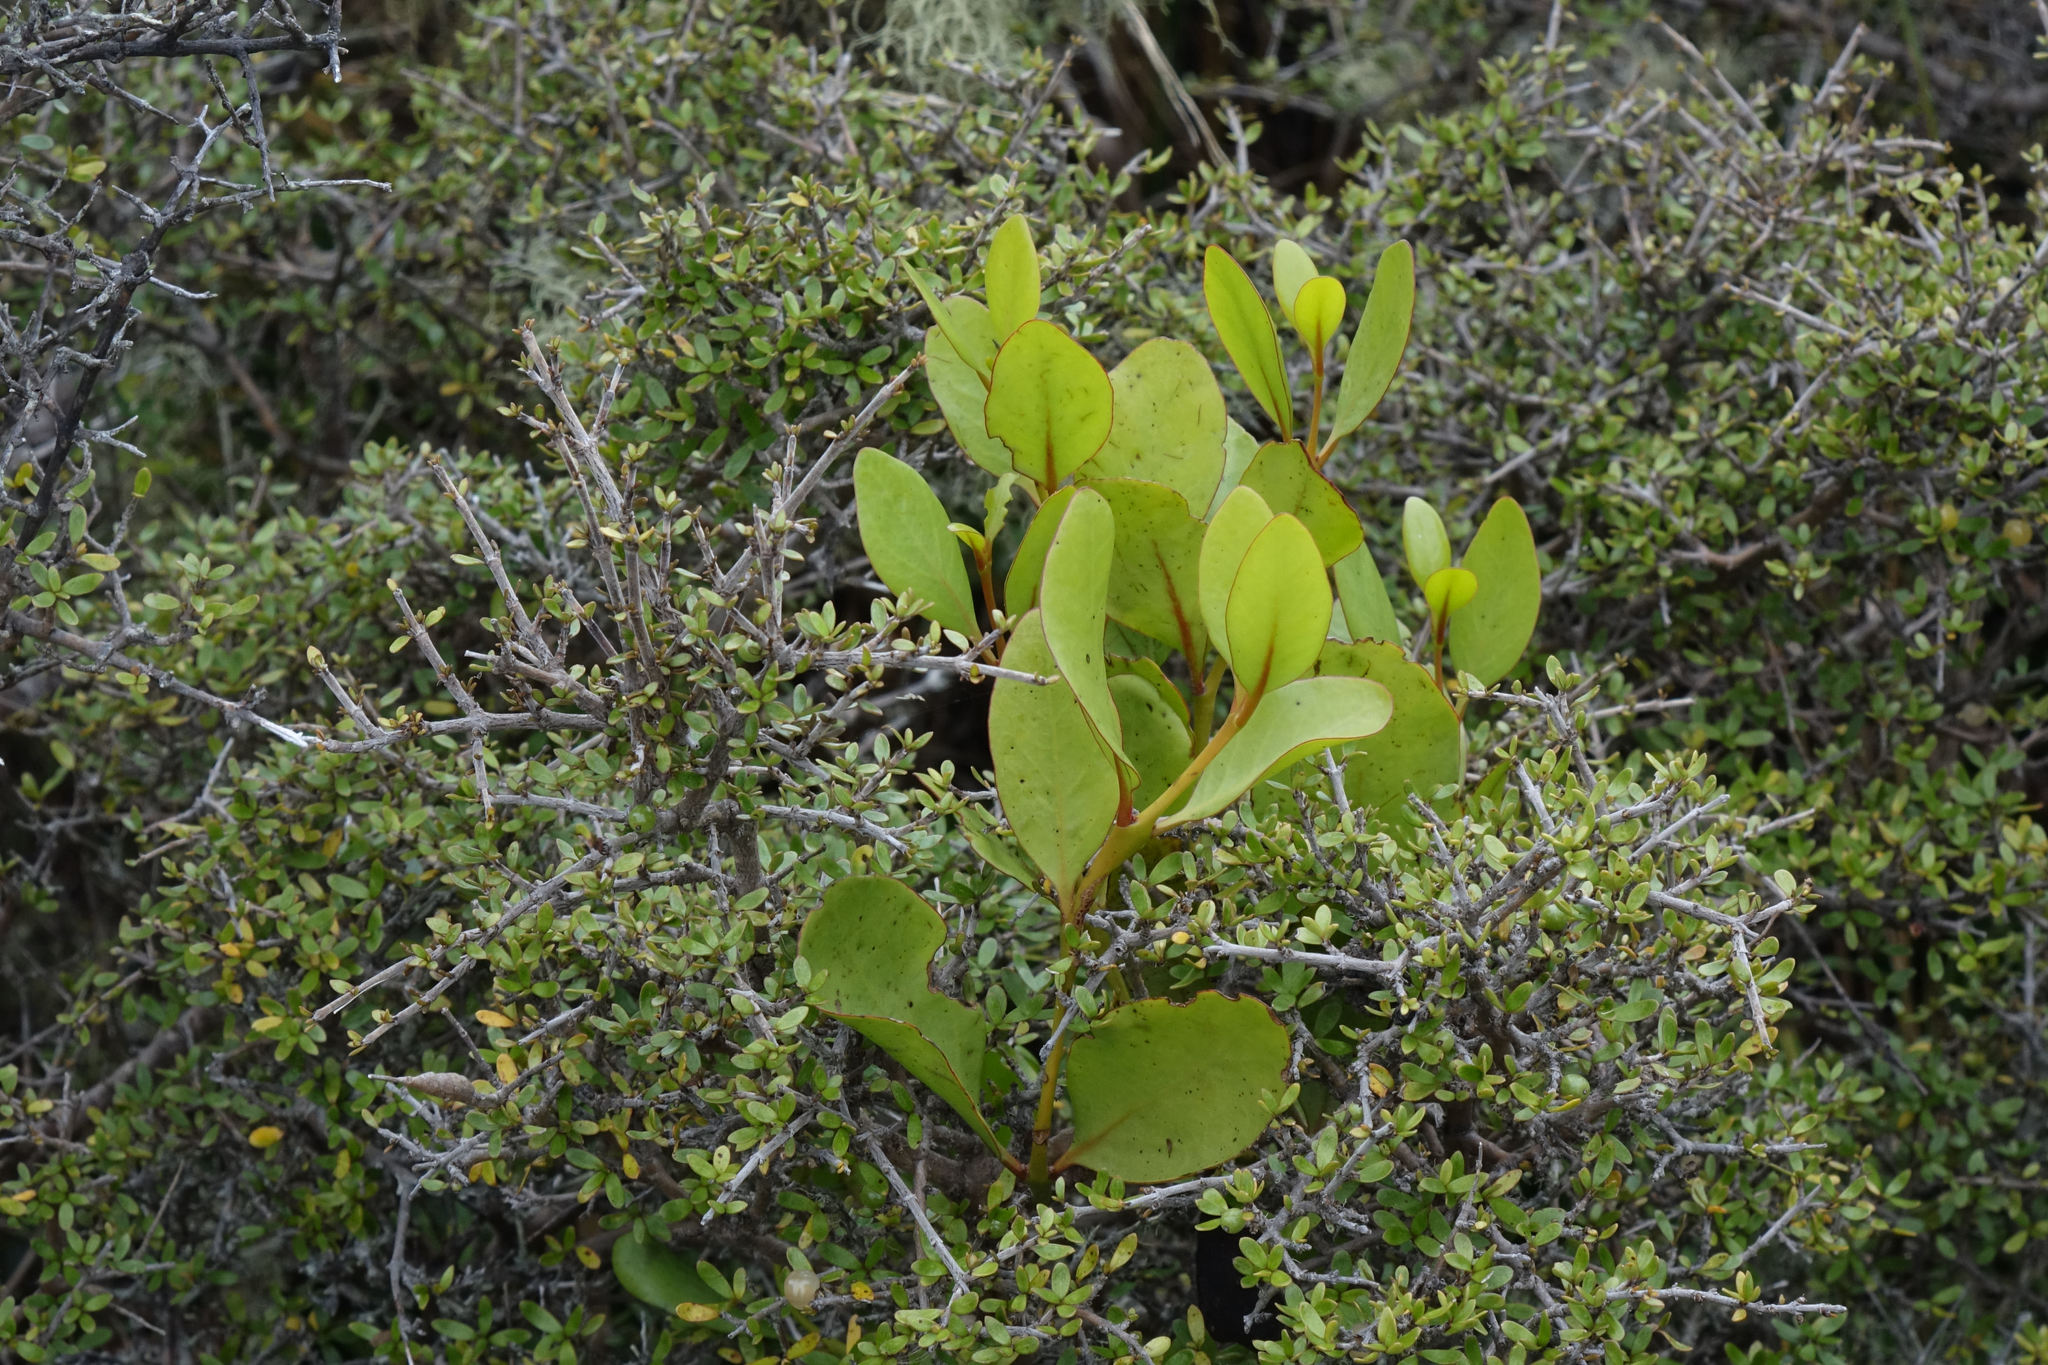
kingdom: Plantae
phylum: Tracheophyta
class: Magnoliopsida
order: Santalales
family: Loranthaceae
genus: Ileostylus
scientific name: Ileostylus micranthus
